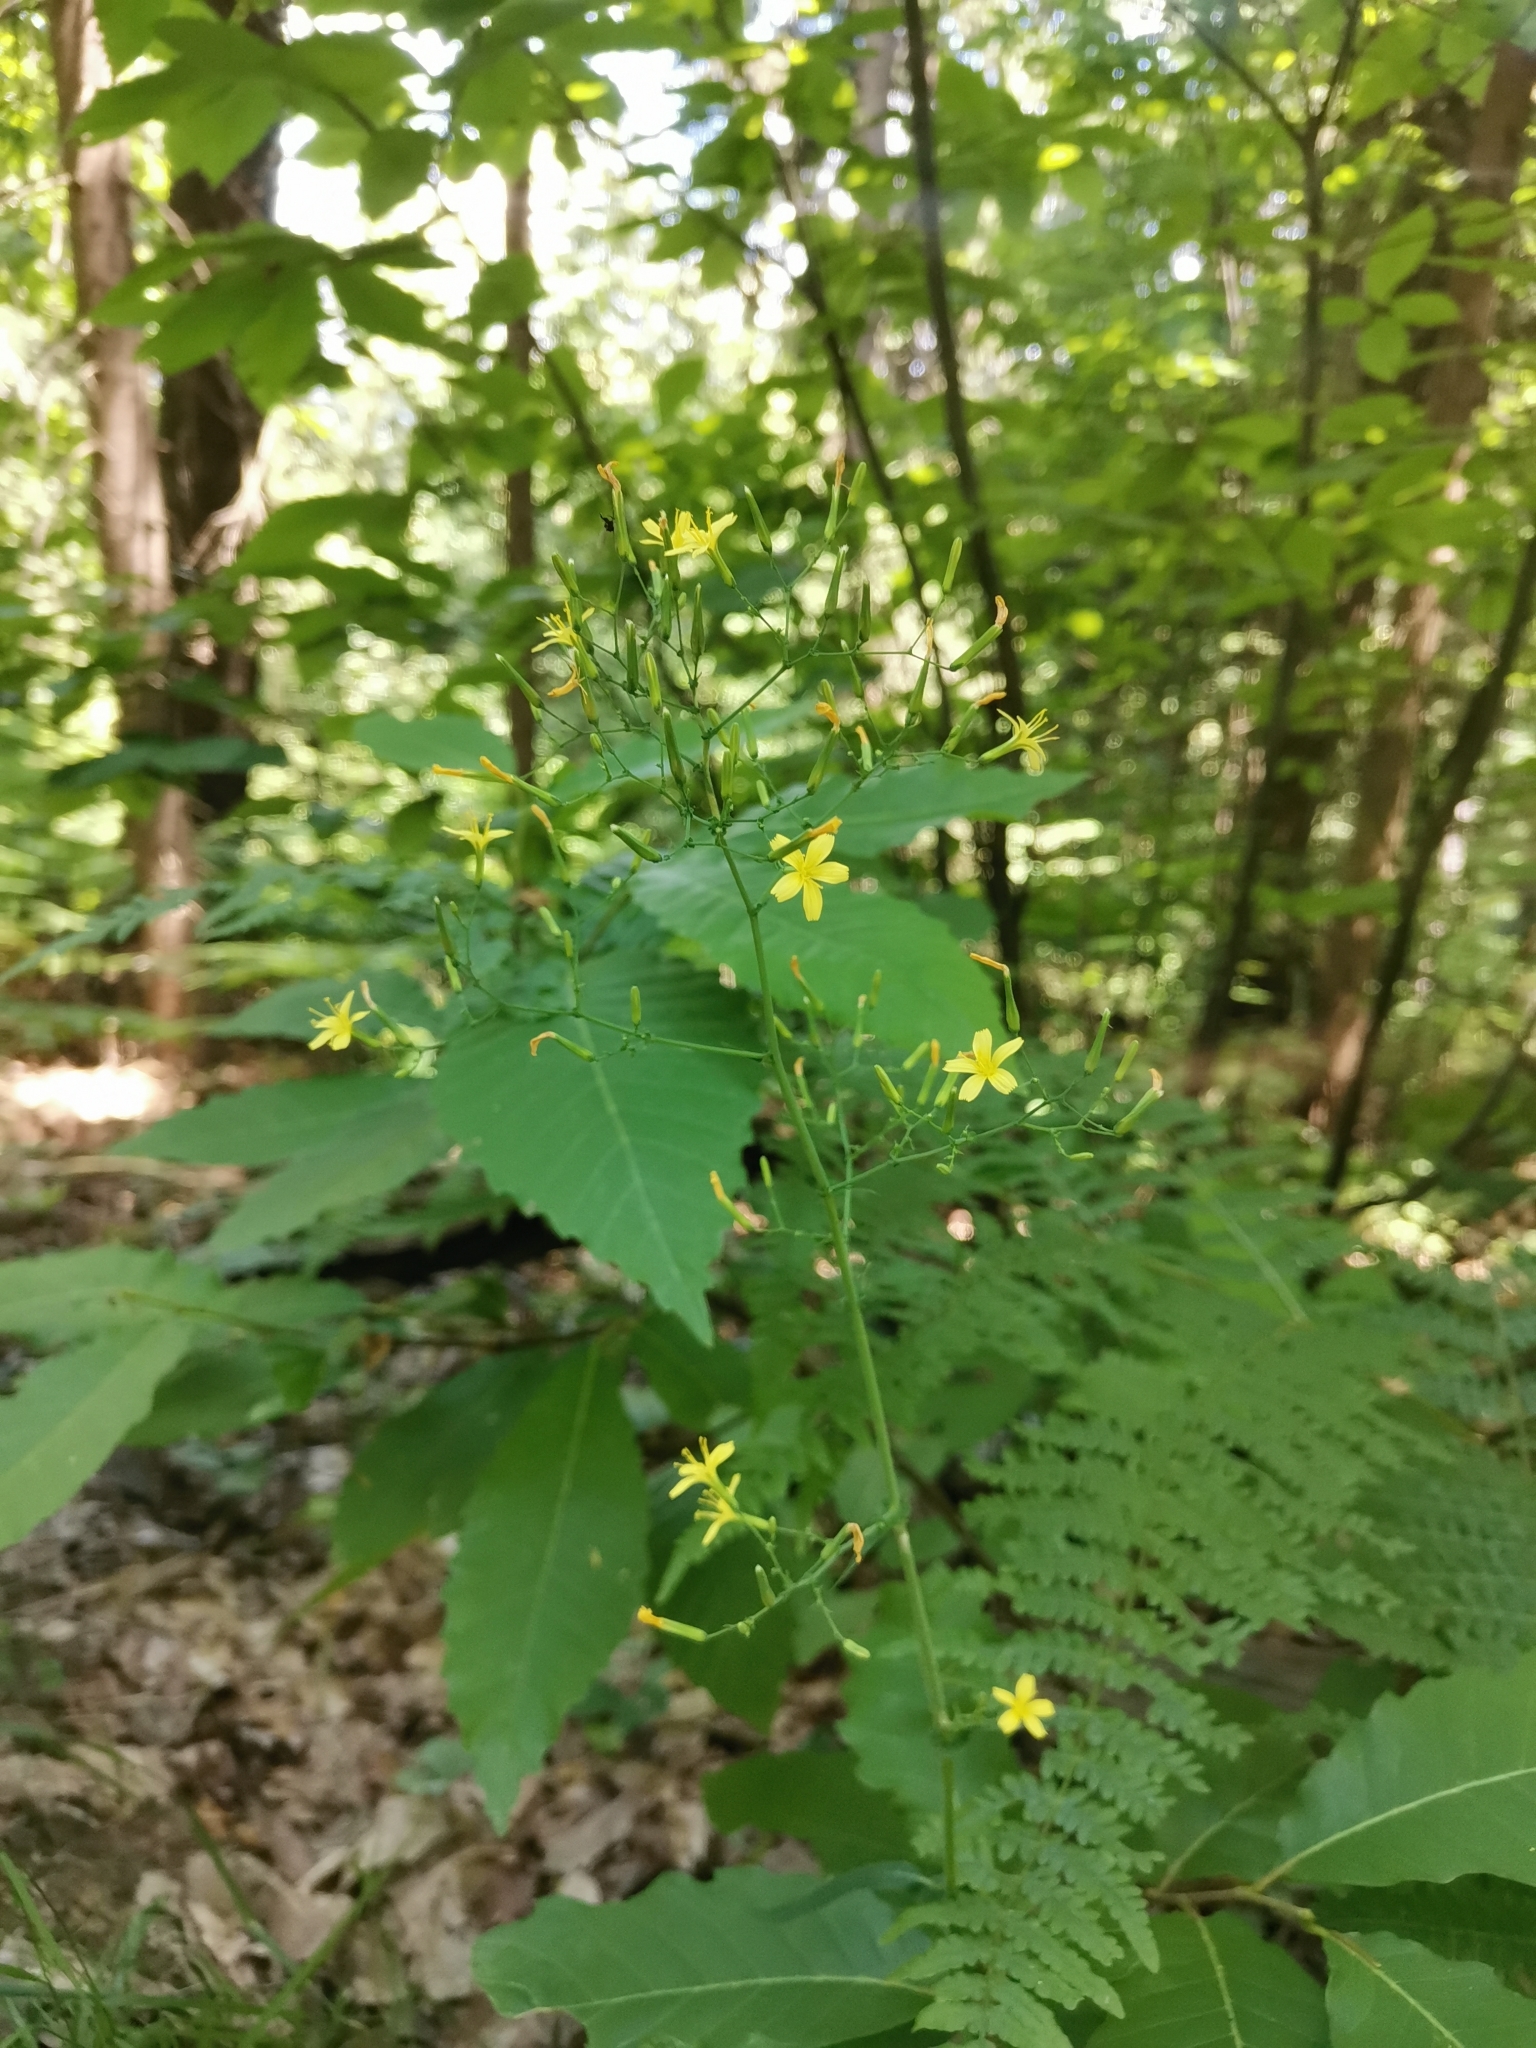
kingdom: Plantae
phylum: Tracheophyta
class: Magnoliopsida
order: Asterales
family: Asteraceae
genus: Mycelis
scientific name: Mycelis muralis
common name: Wall lettuce
